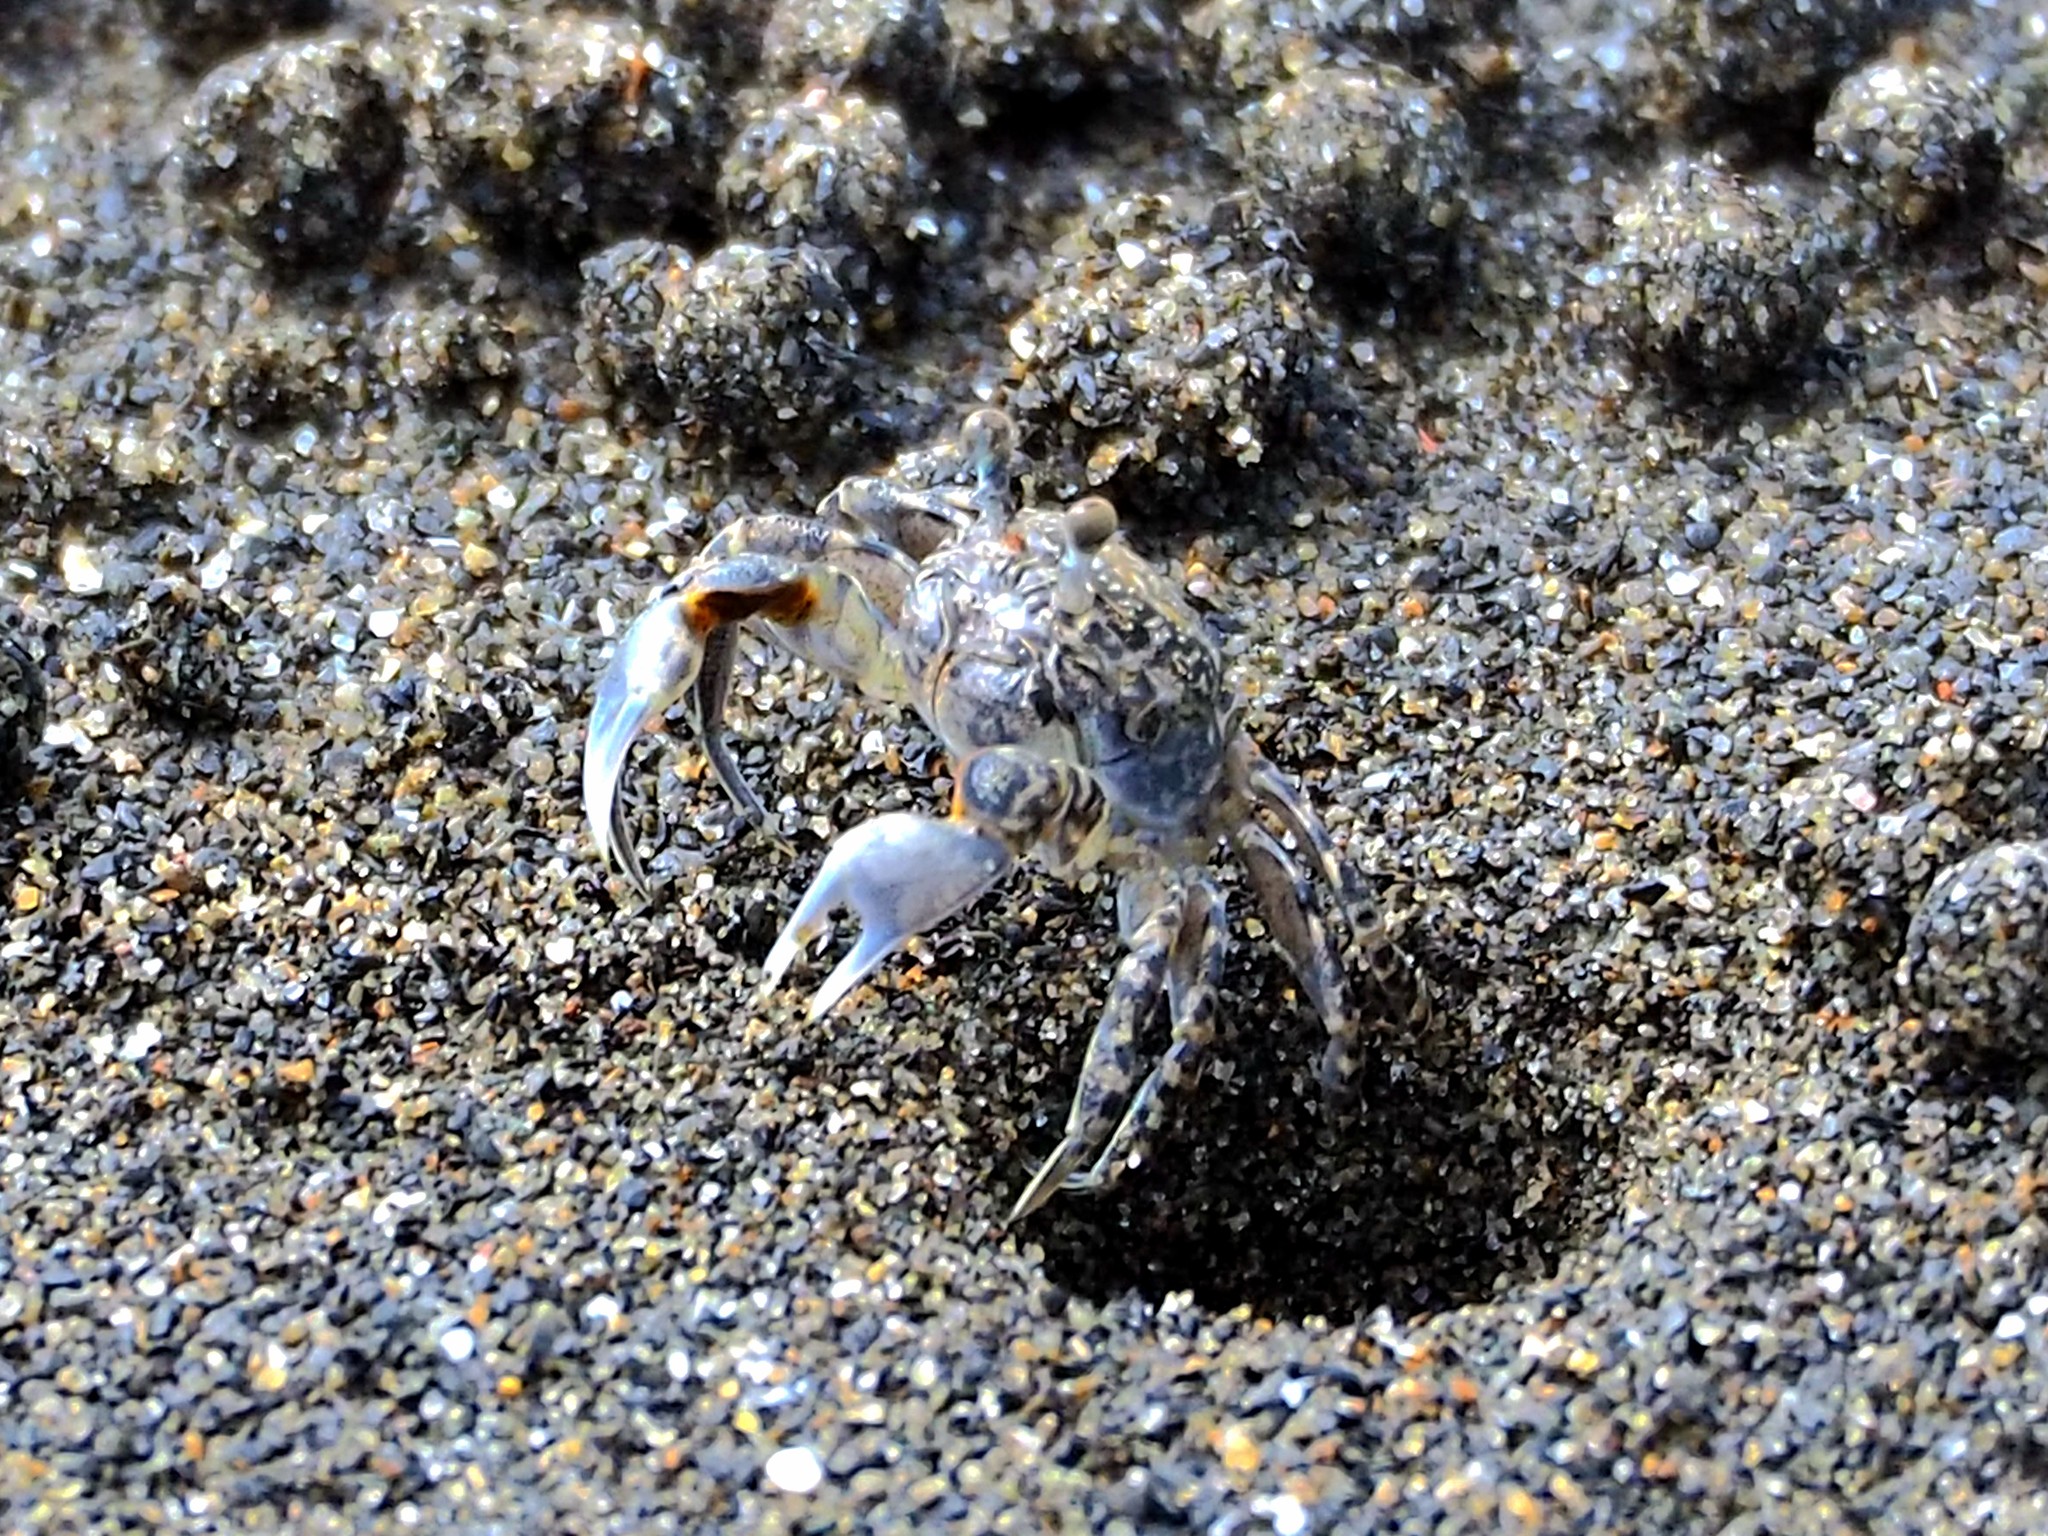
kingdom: Animalia
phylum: Arthropoda
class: Malacostraca
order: Decapoda
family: Dotillidae
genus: Scopimera
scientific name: Scopimera bitympana
